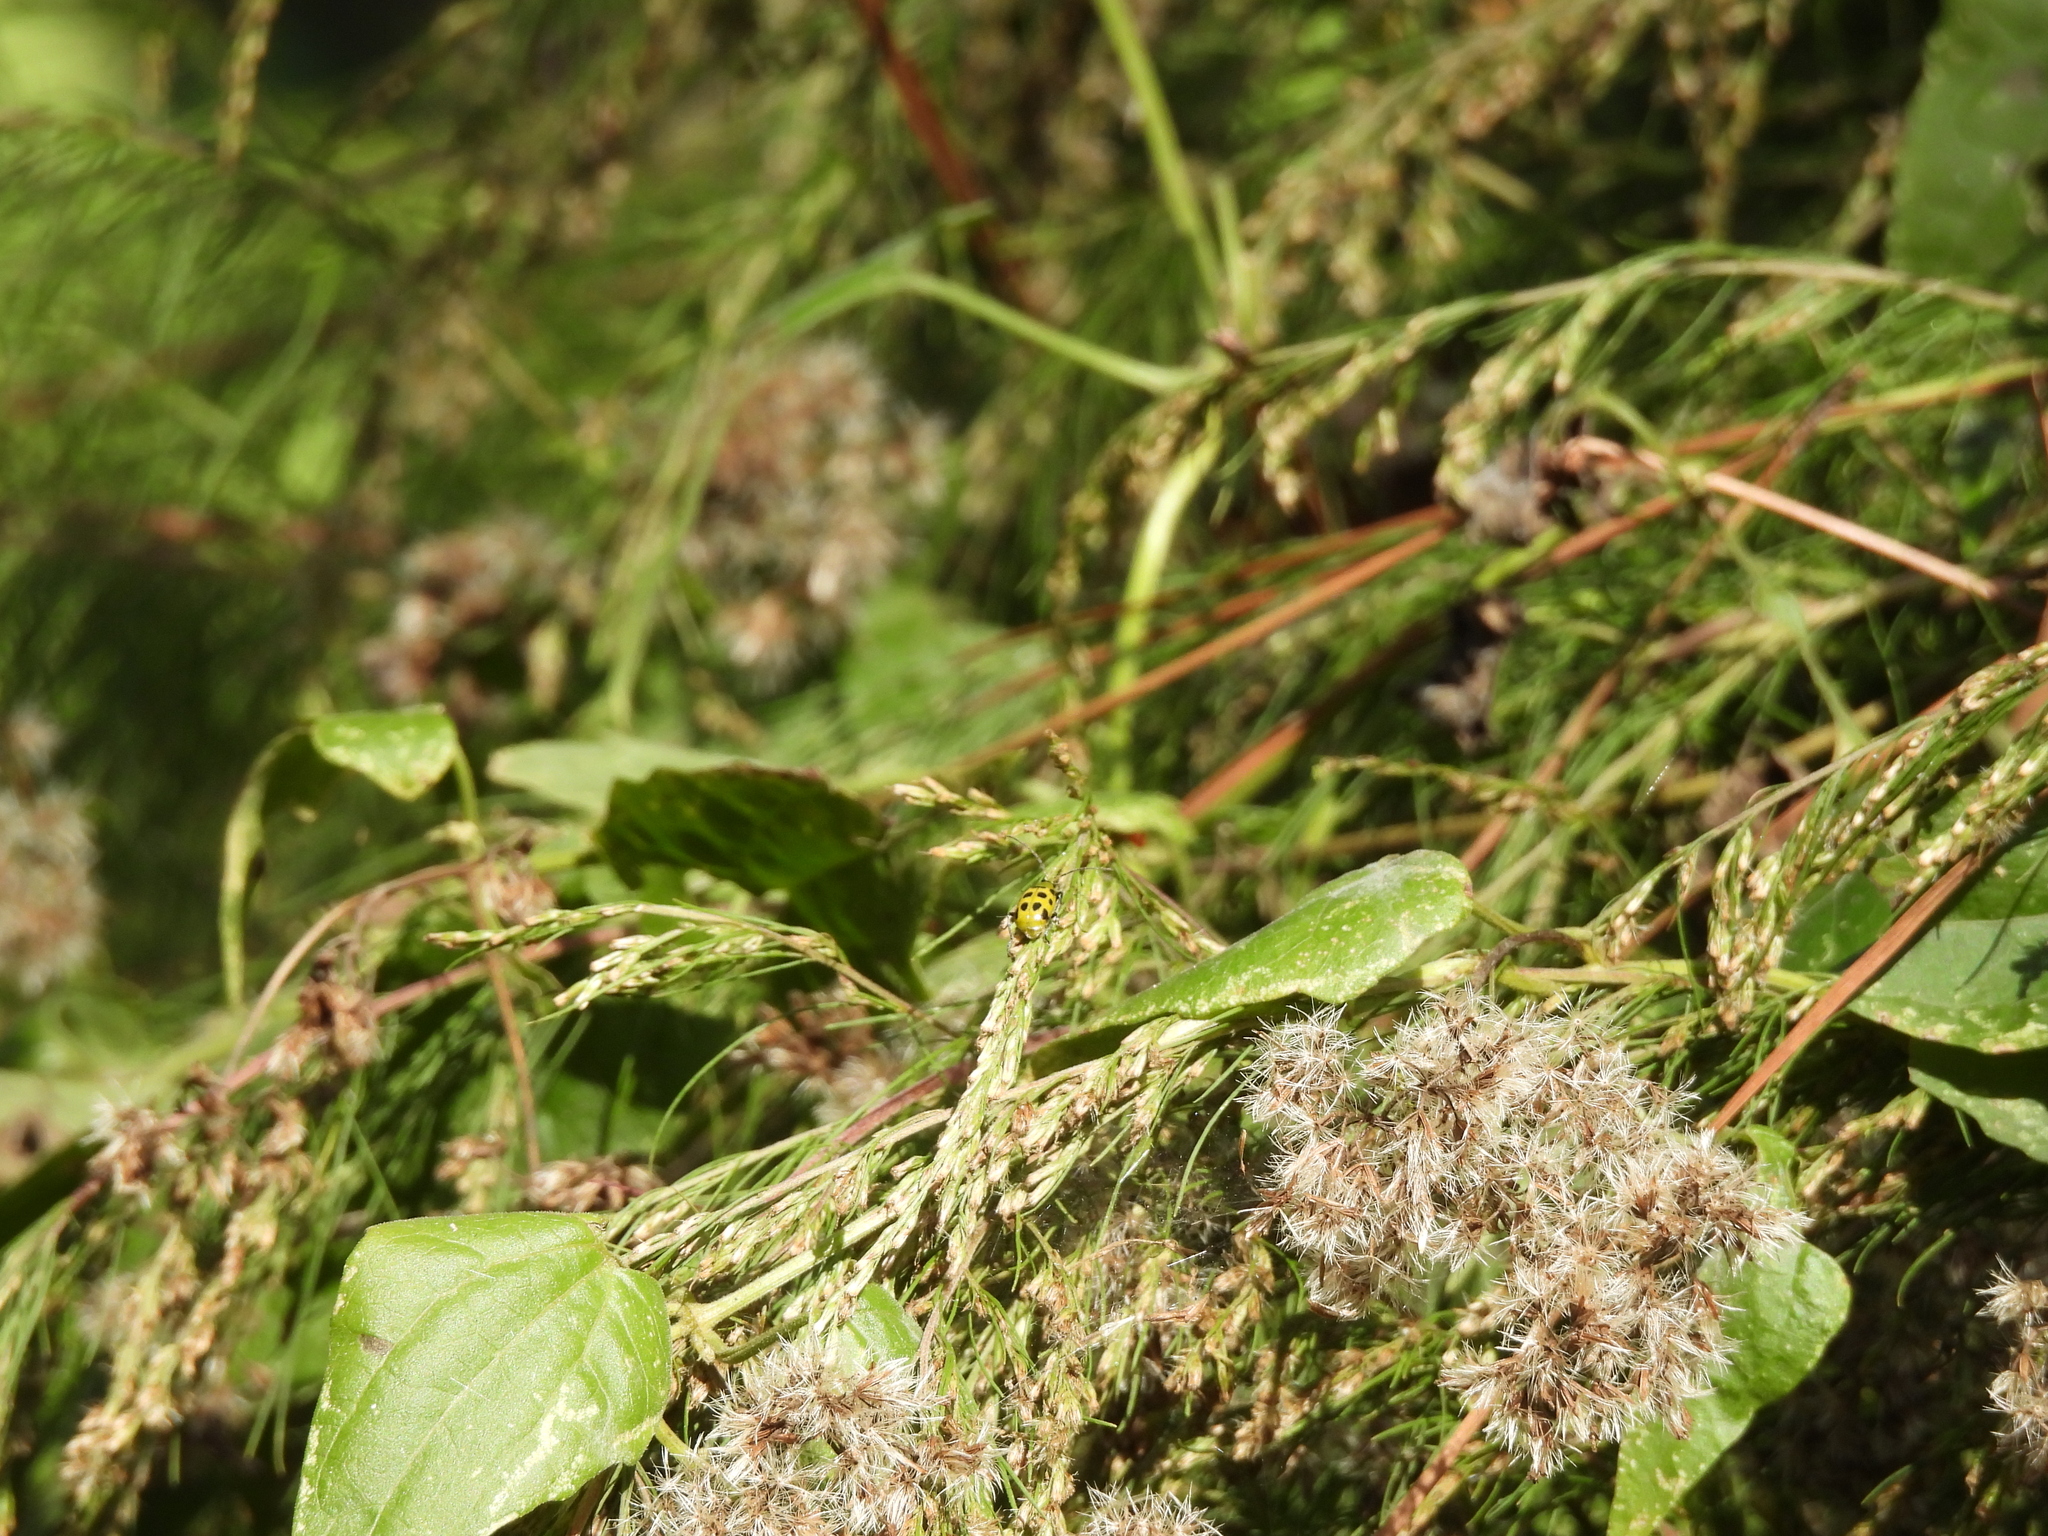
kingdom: Animalia
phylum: Arthropoda
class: Insecta
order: Coleoptera
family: Chrysomelidae
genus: Diabrotica
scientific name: Diabrotica undecimpunctata
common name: Spotted cucumber beetle
